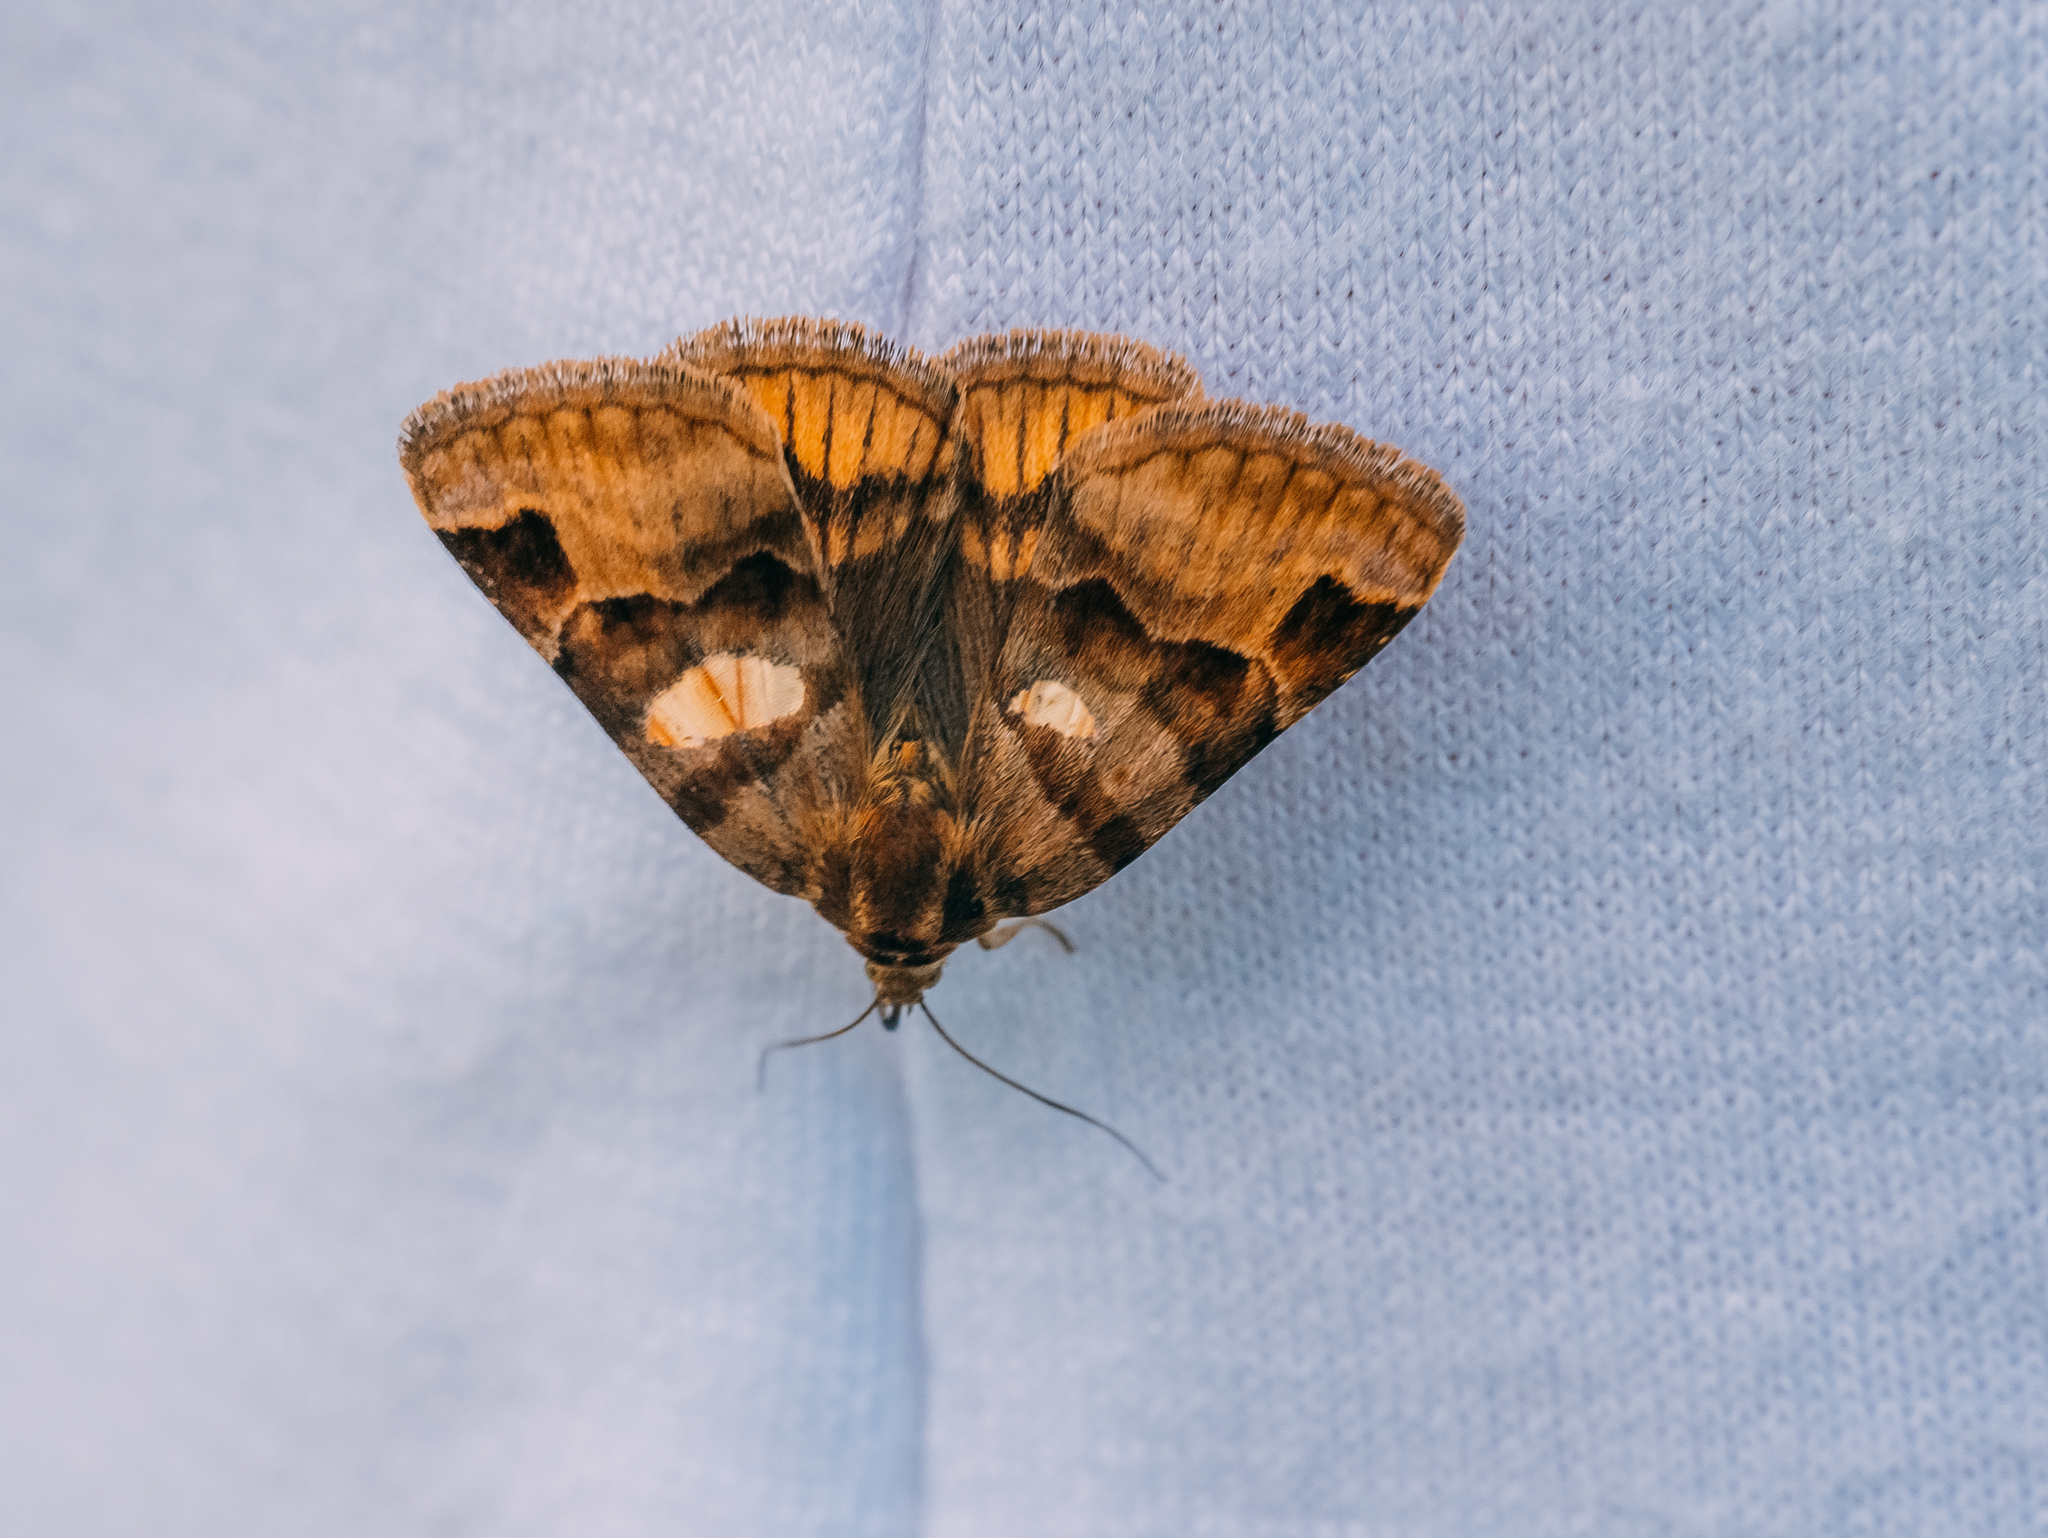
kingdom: Animalia
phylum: Arthropoda
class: Insecta
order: Lepidoptera
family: Erebidae
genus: Euclidia
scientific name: Euclidia glyphica
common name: Burnet companion
